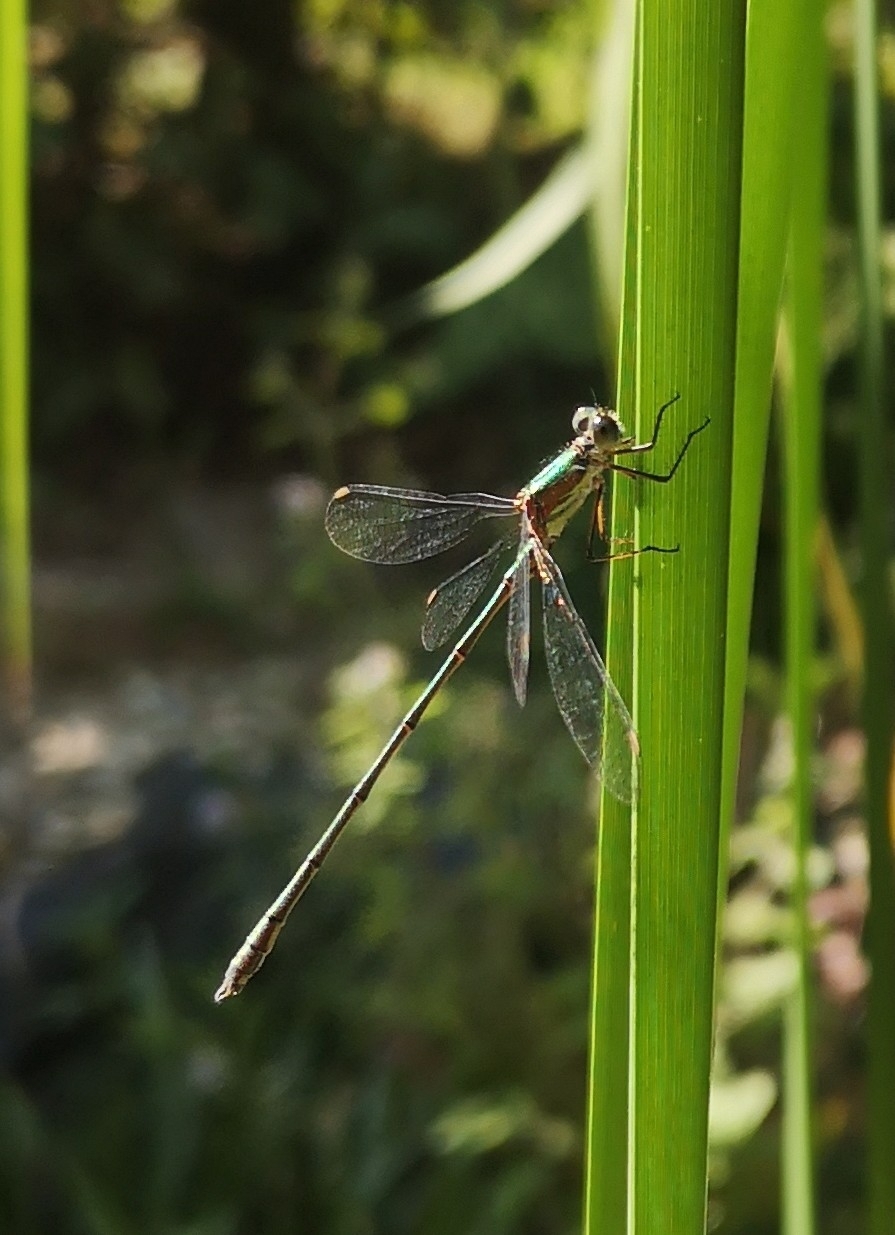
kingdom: Animalia
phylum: Arthropoda
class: Insecta
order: Odonata
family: Lestidae
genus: Chalcolestes
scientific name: Chalcolestes viridis
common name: Green emerald damselfly
